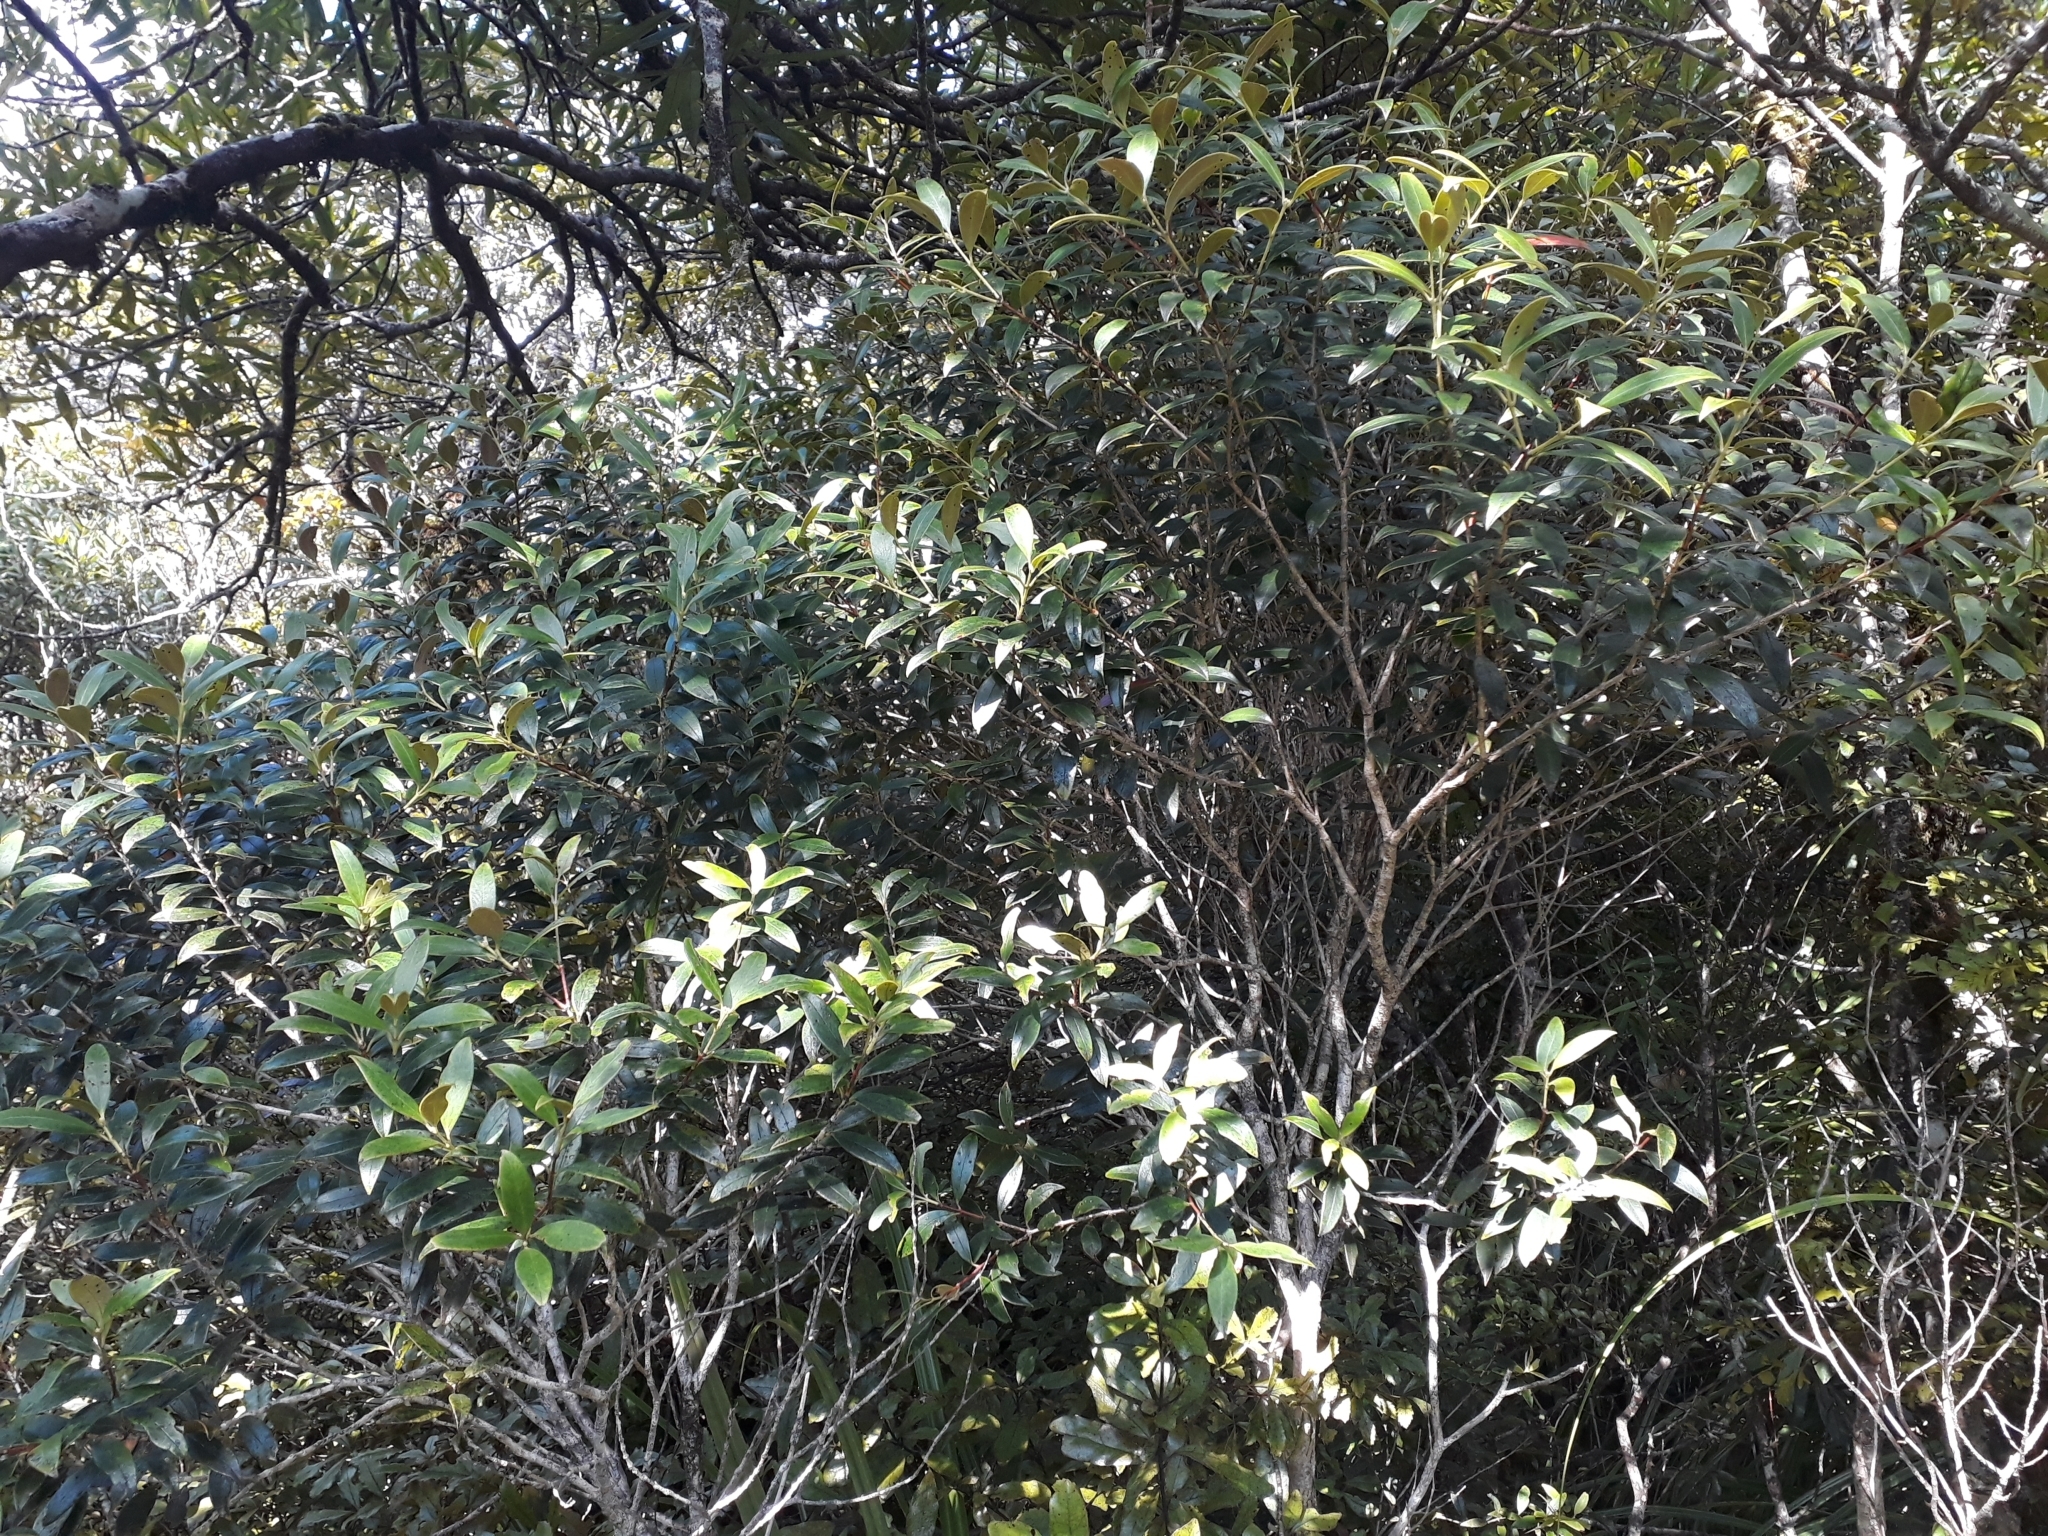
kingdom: Plantae
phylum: Tracheophyta
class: Magnoliopsida
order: Myrtales
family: Myrtaceae
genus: Metrosideros
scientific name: Metrosideros umbellata
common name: Southern rata
